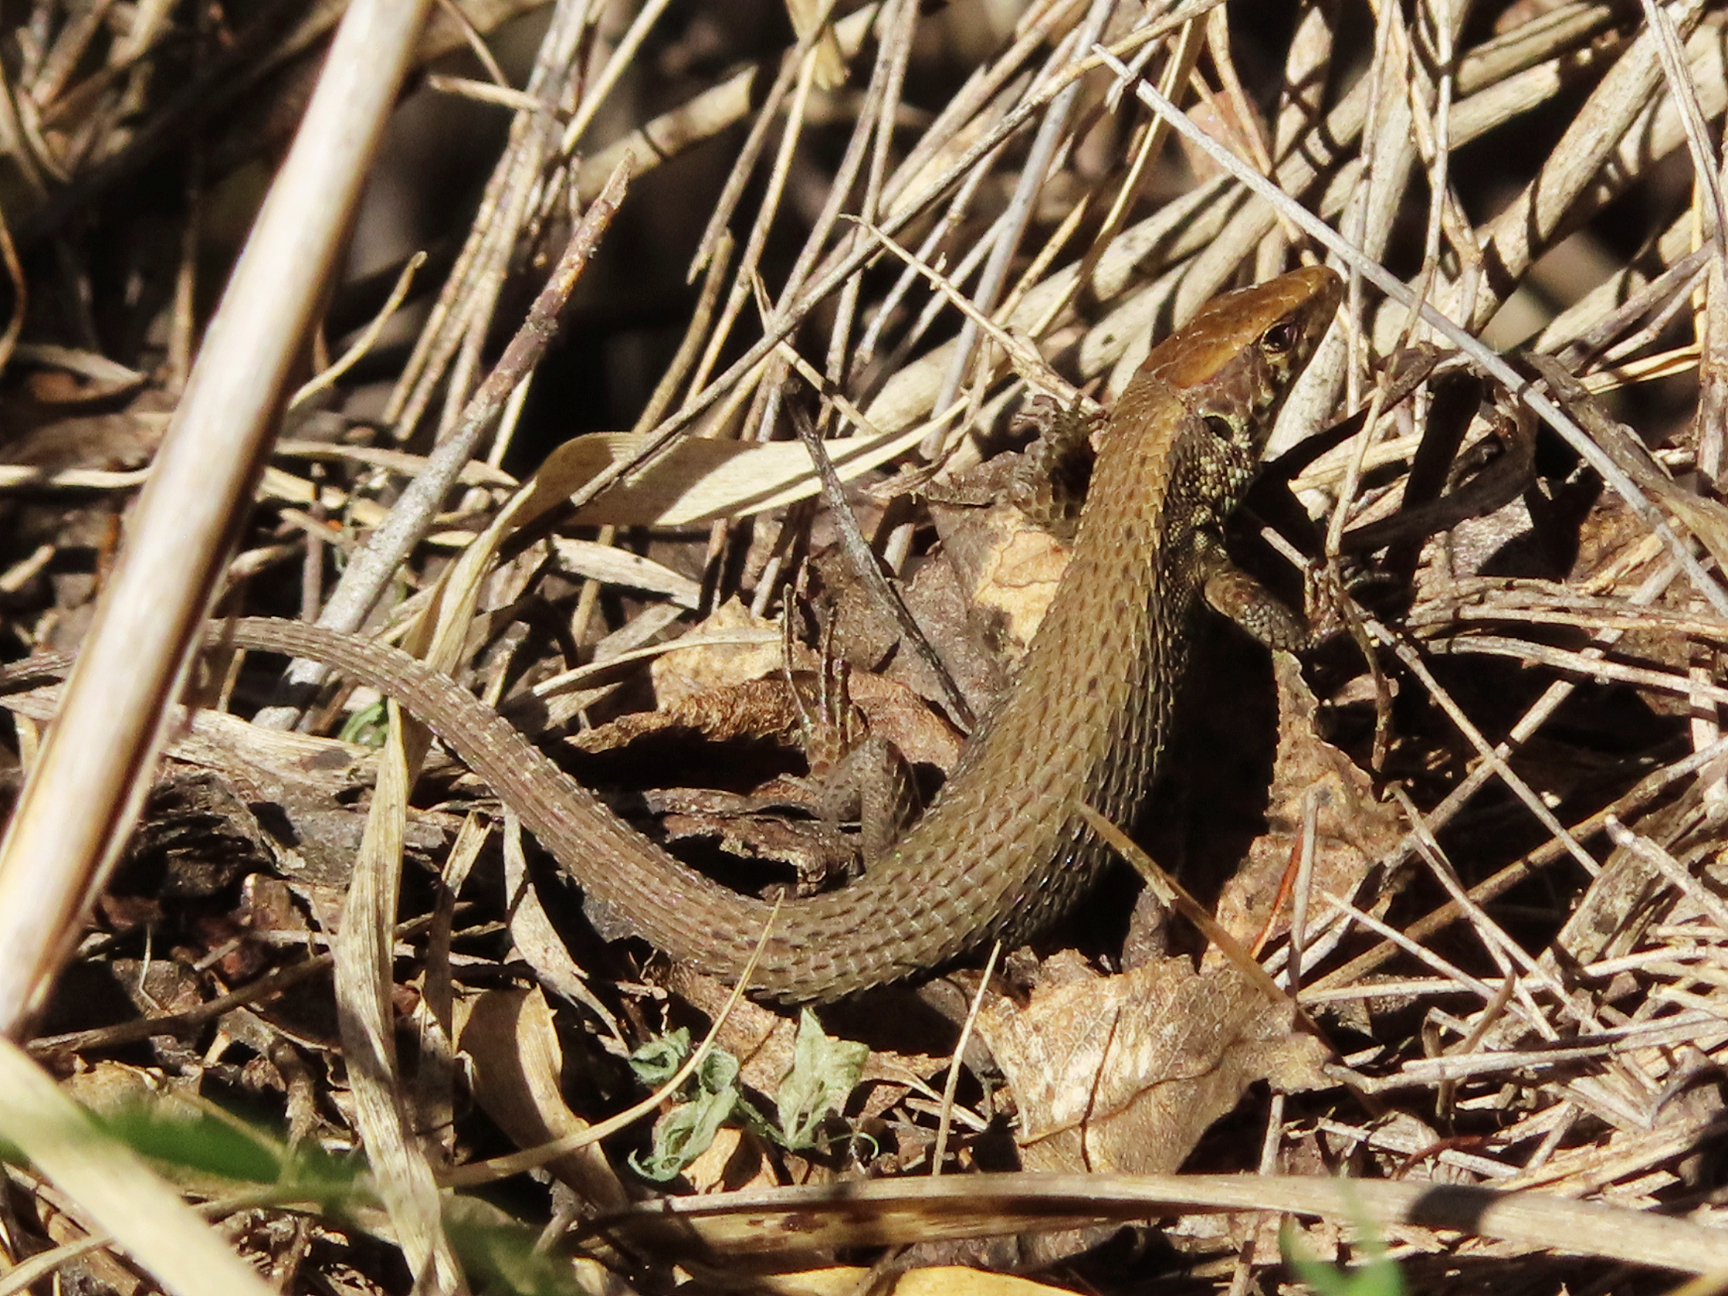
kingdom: Animalia
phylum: Chordata
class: Squamata
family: Lacertidae
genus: Algyroides
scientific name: Algyroides moreoticus
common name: Greek algyroides
